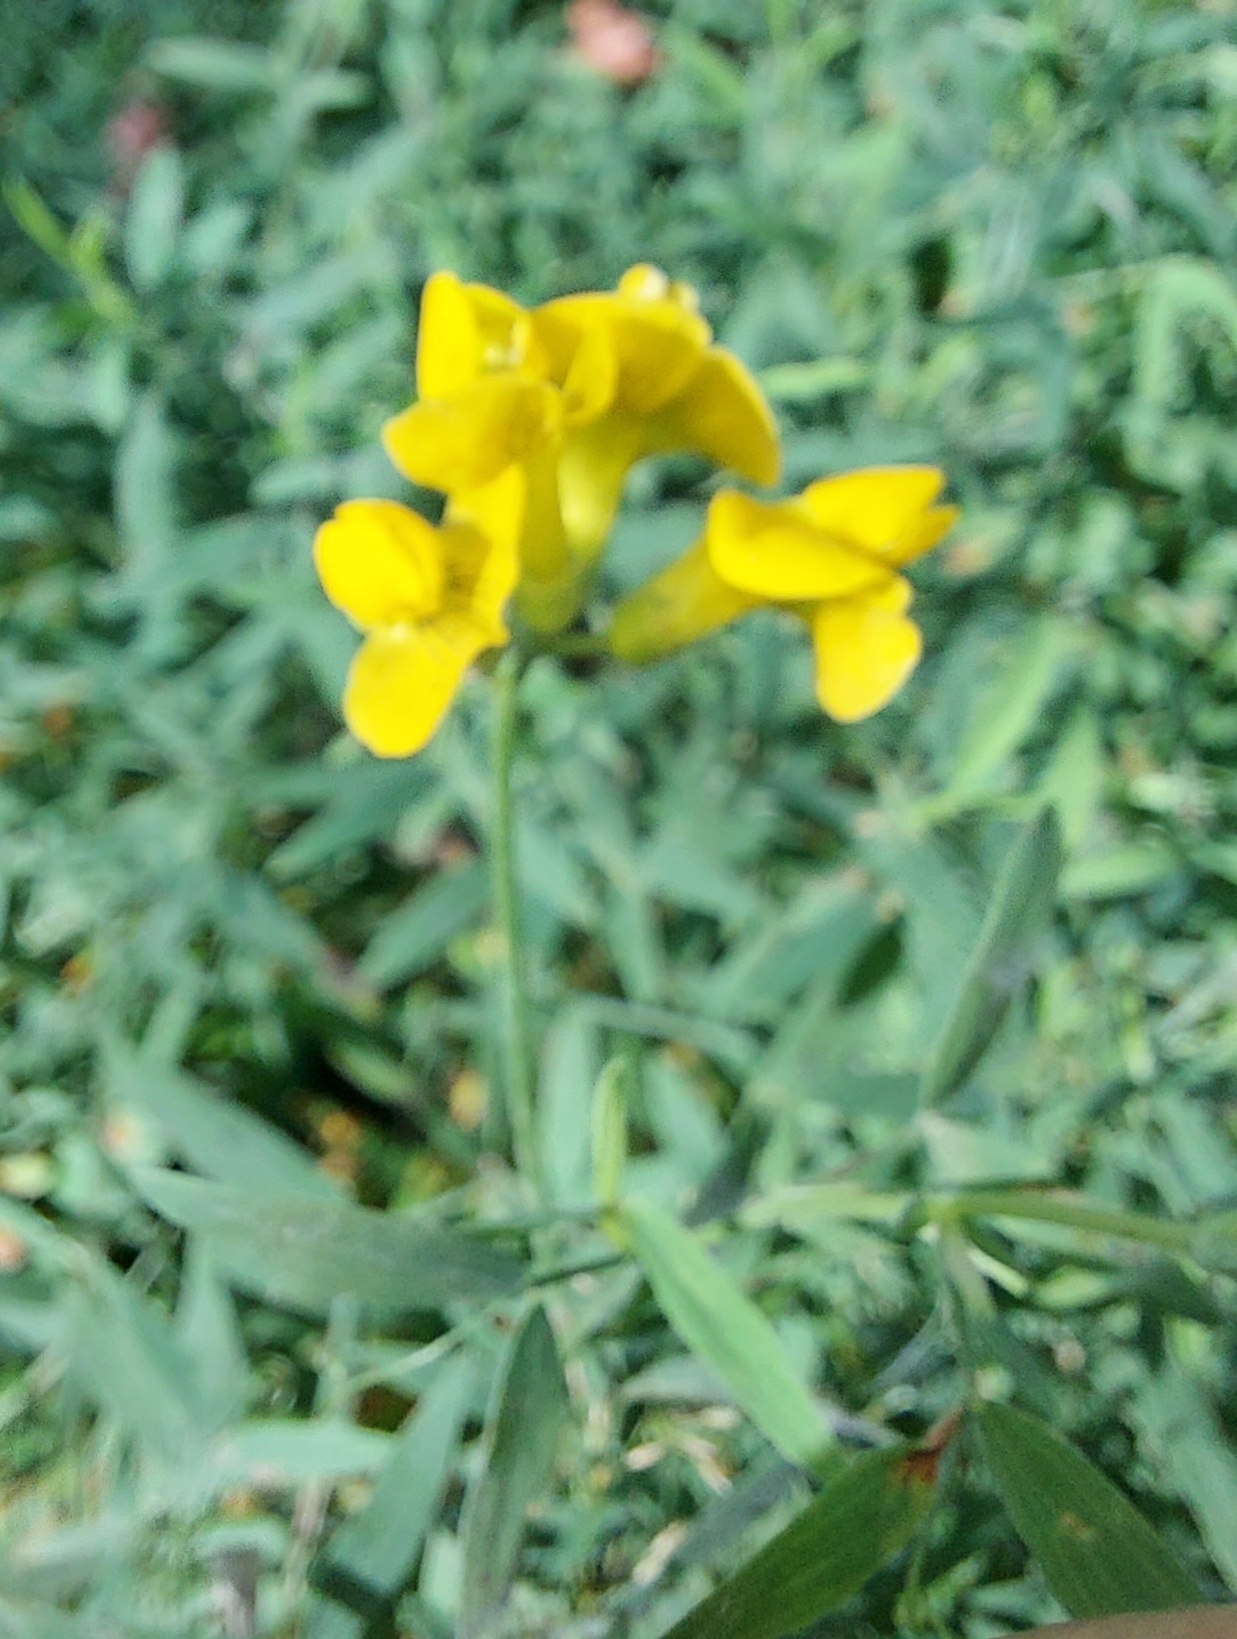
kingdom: Plantae
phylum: Tracheophyta
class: Magnoliopsida
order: Fabales
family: Fabaceae
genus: Lathyrus
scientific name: Lathyrus pratensis
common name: Meadow vetchling
